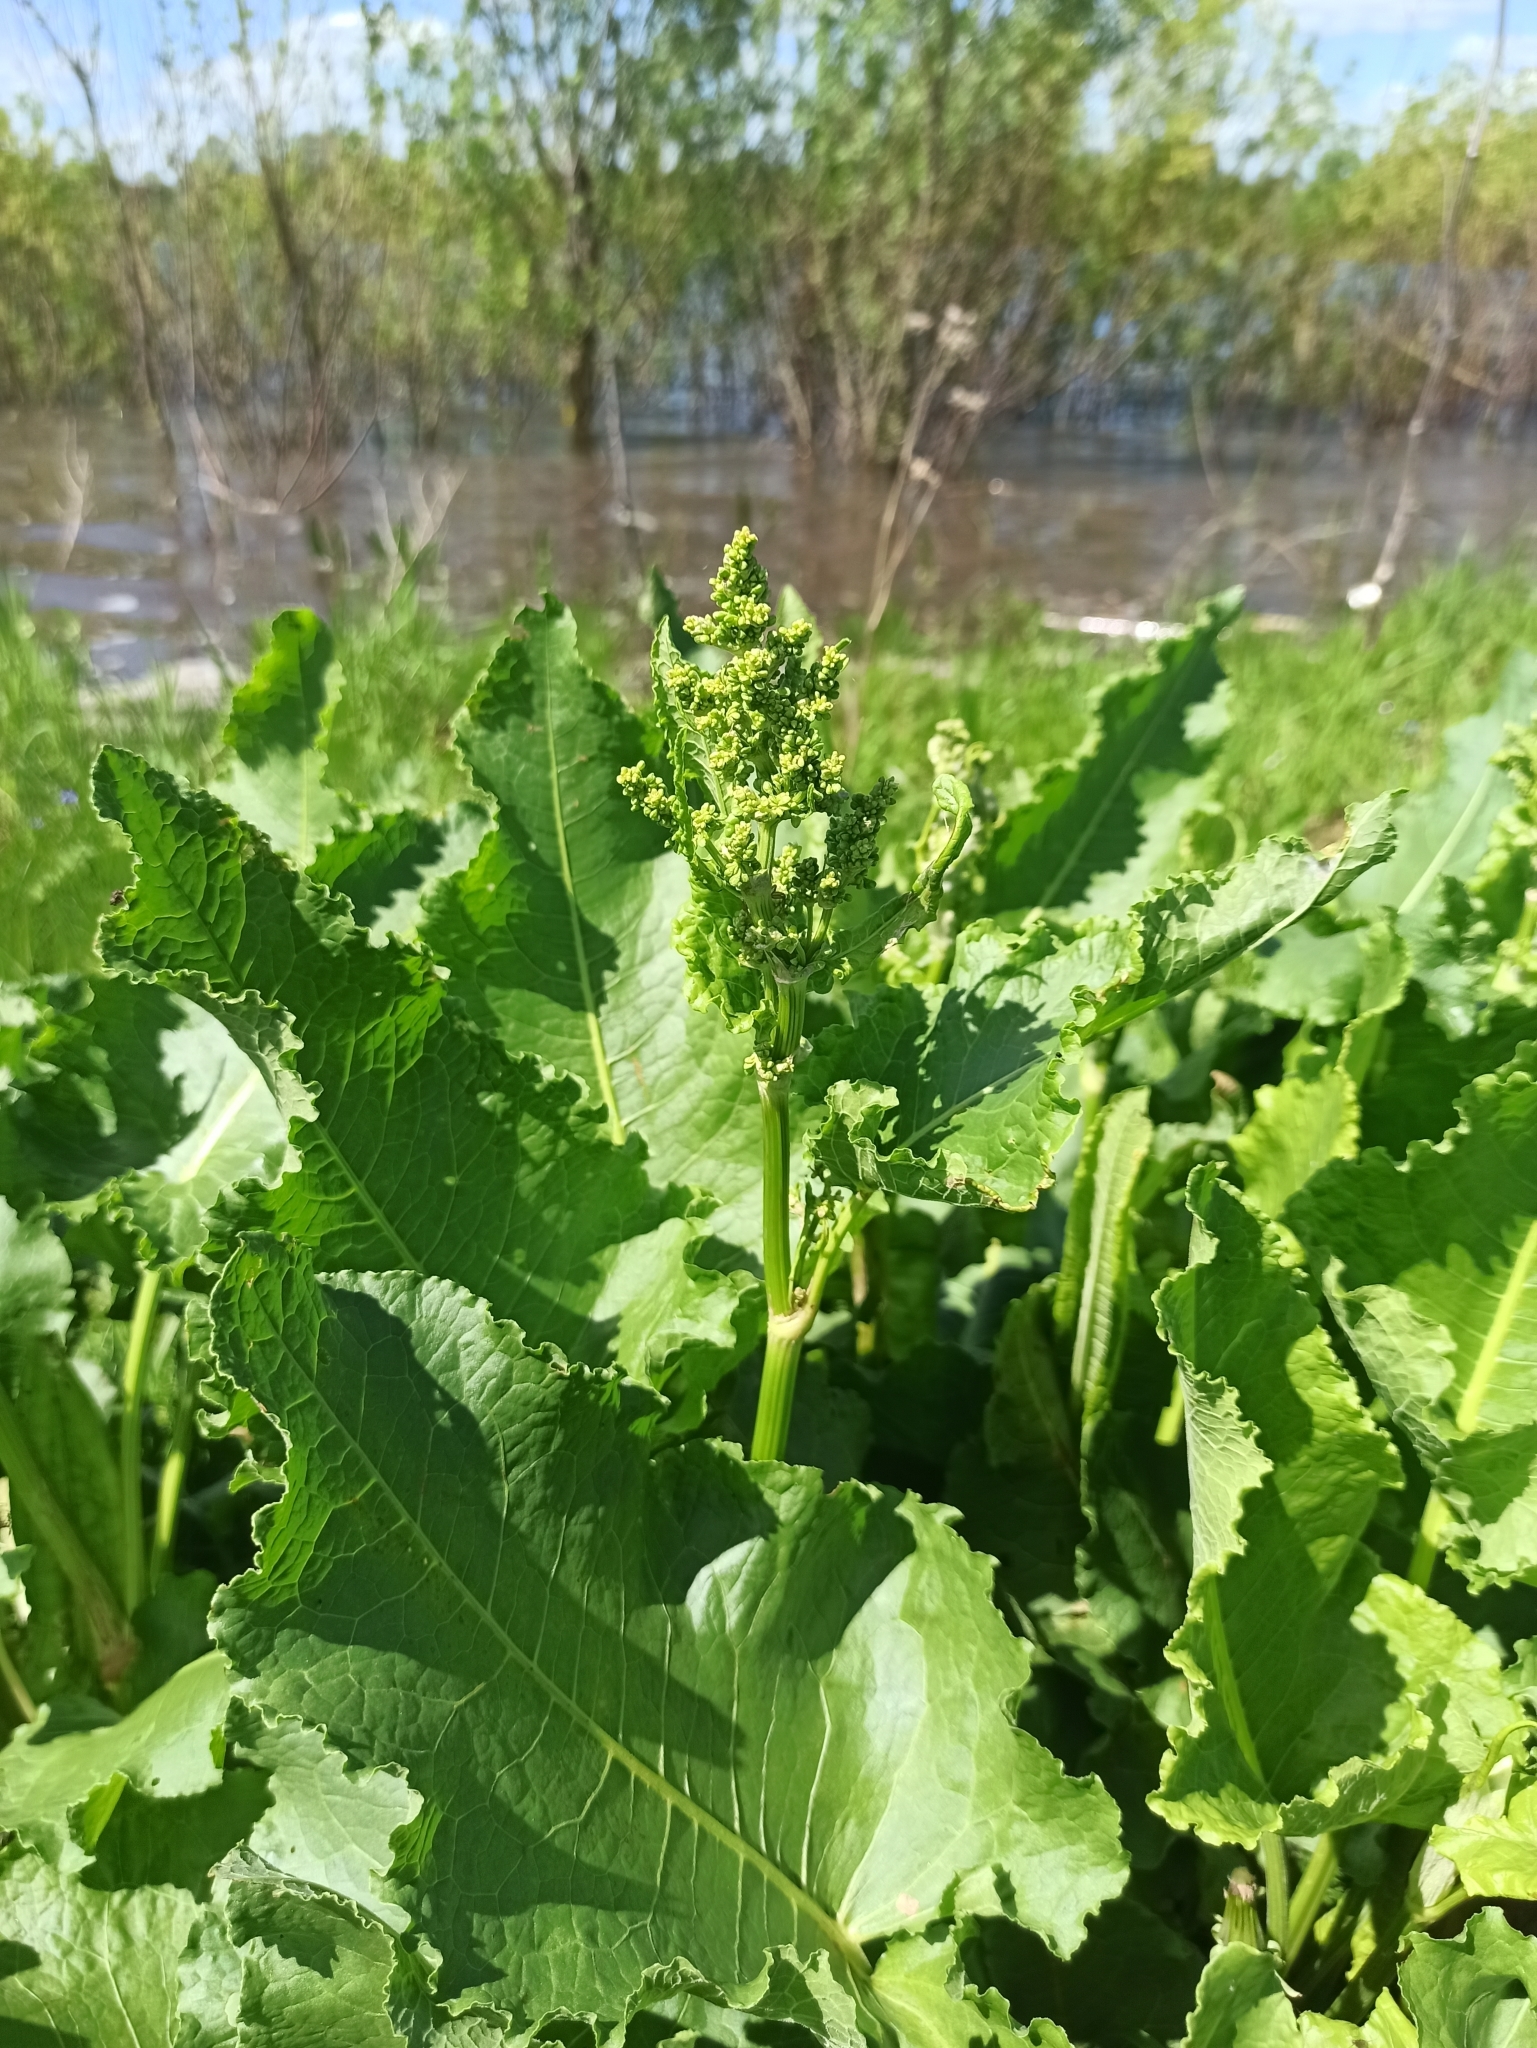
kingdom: Plantae
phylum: Tracheophyta
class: Magnoliopsida
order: Caryophyllales
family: Polygonaceae
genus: Rumex
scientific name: Rumex confertus
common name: Russian dock
